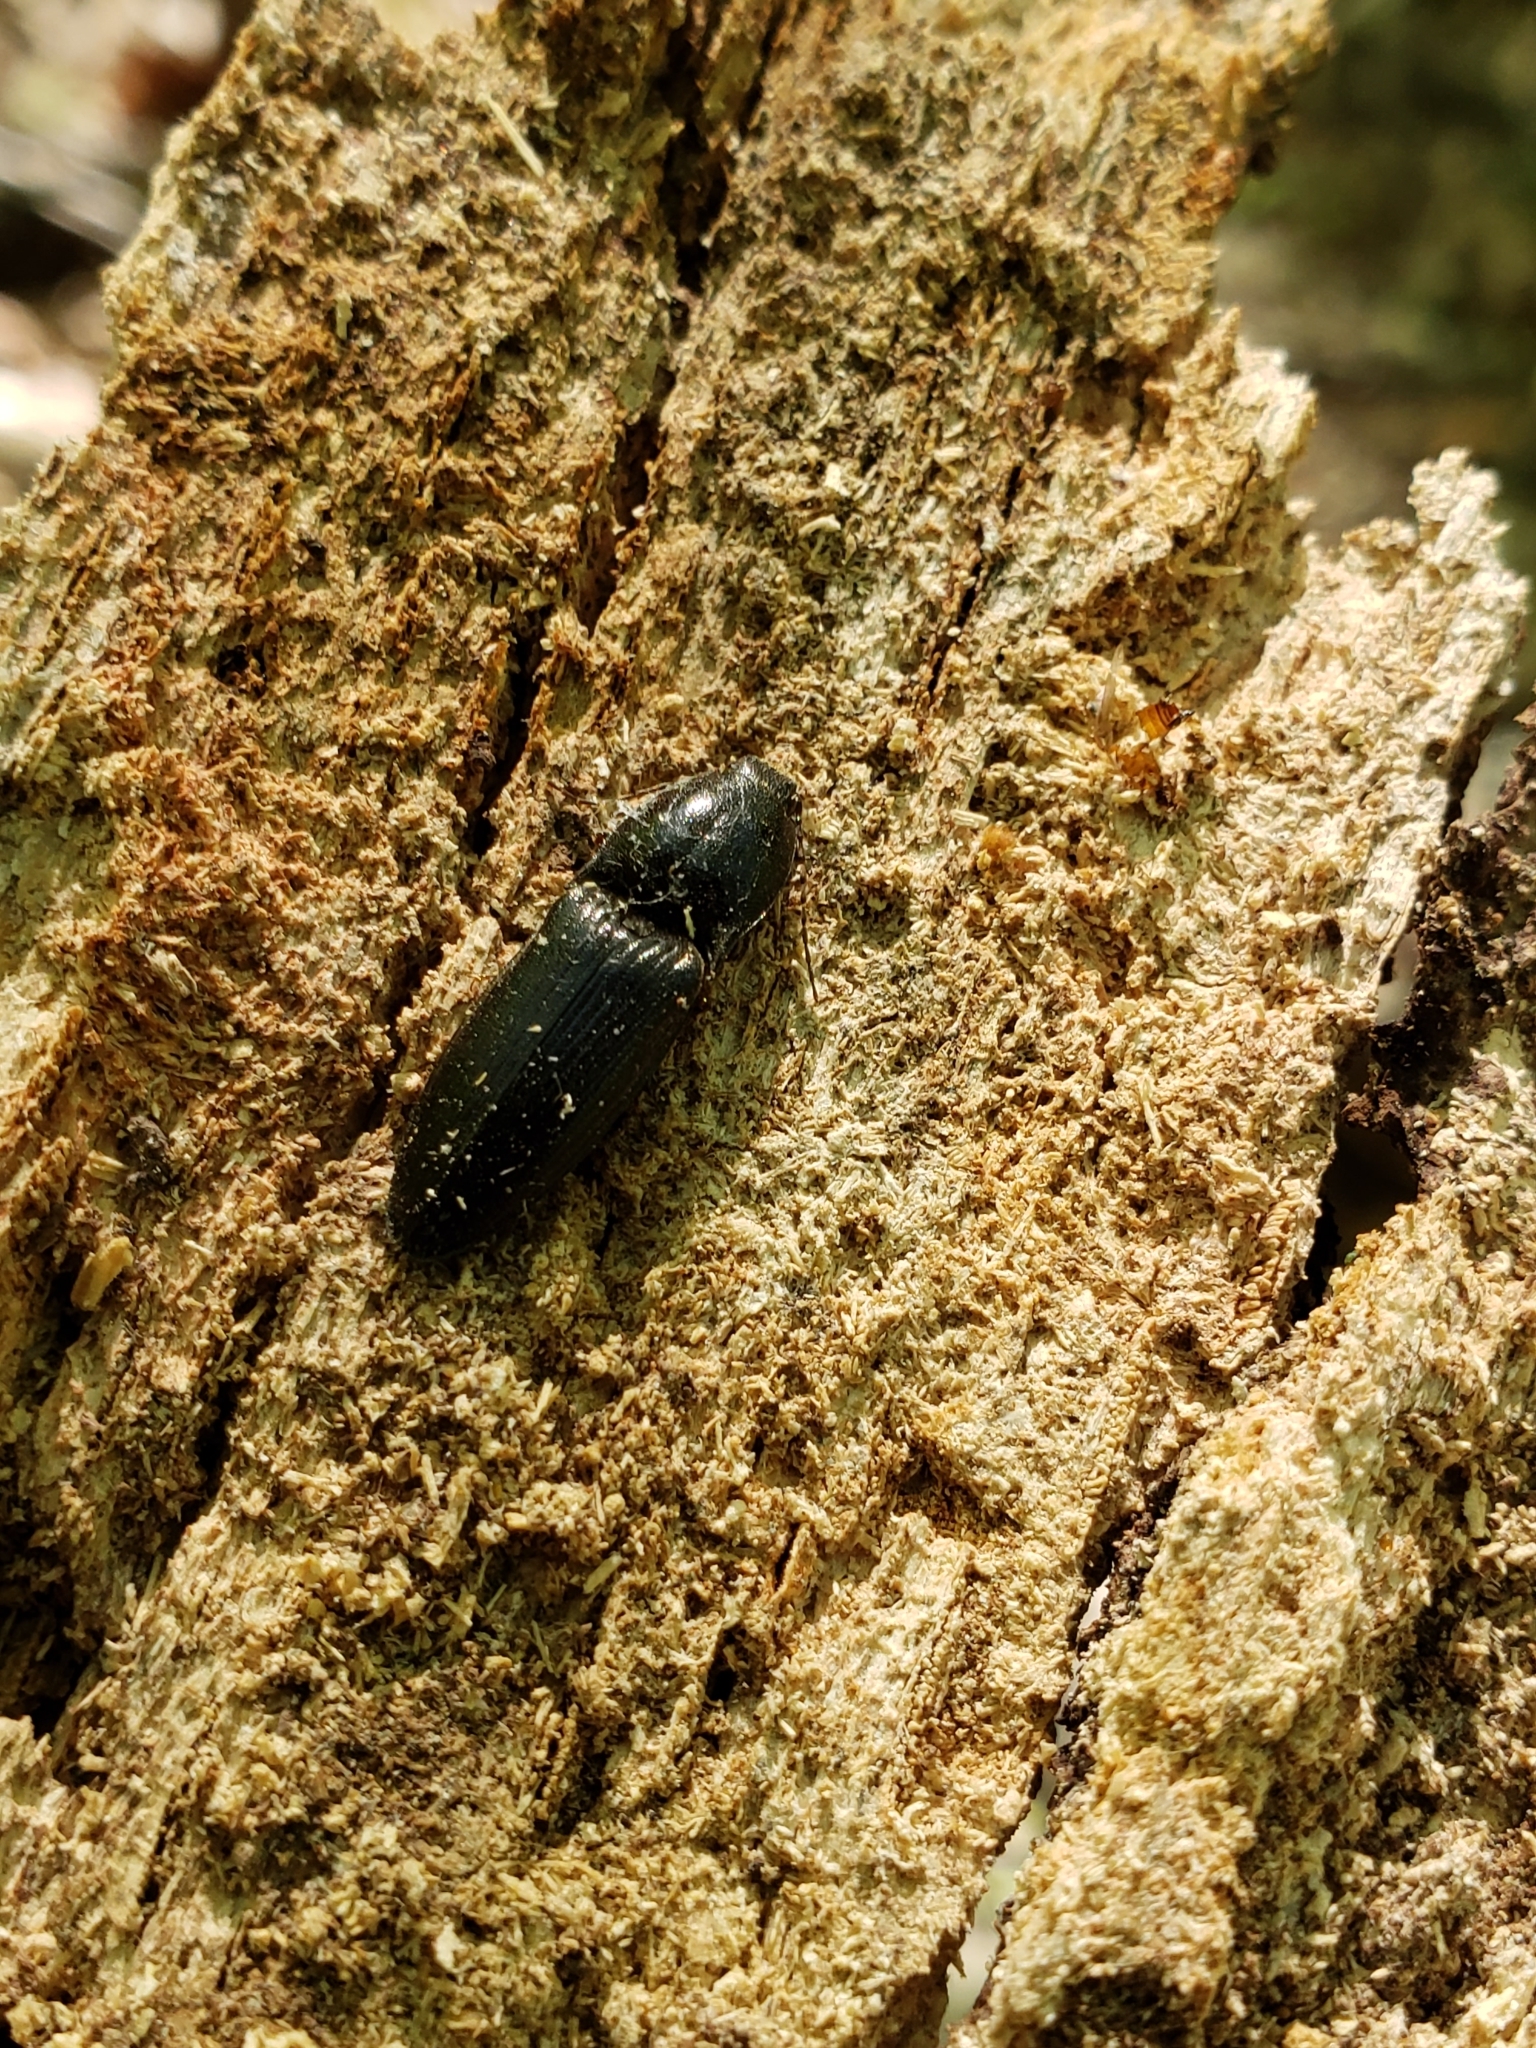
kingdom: Animalia
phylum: Arthropoda
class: Insecta
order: Coleoptera
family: Elateridae
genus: Neopristilophus
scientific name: Neopristilophus
